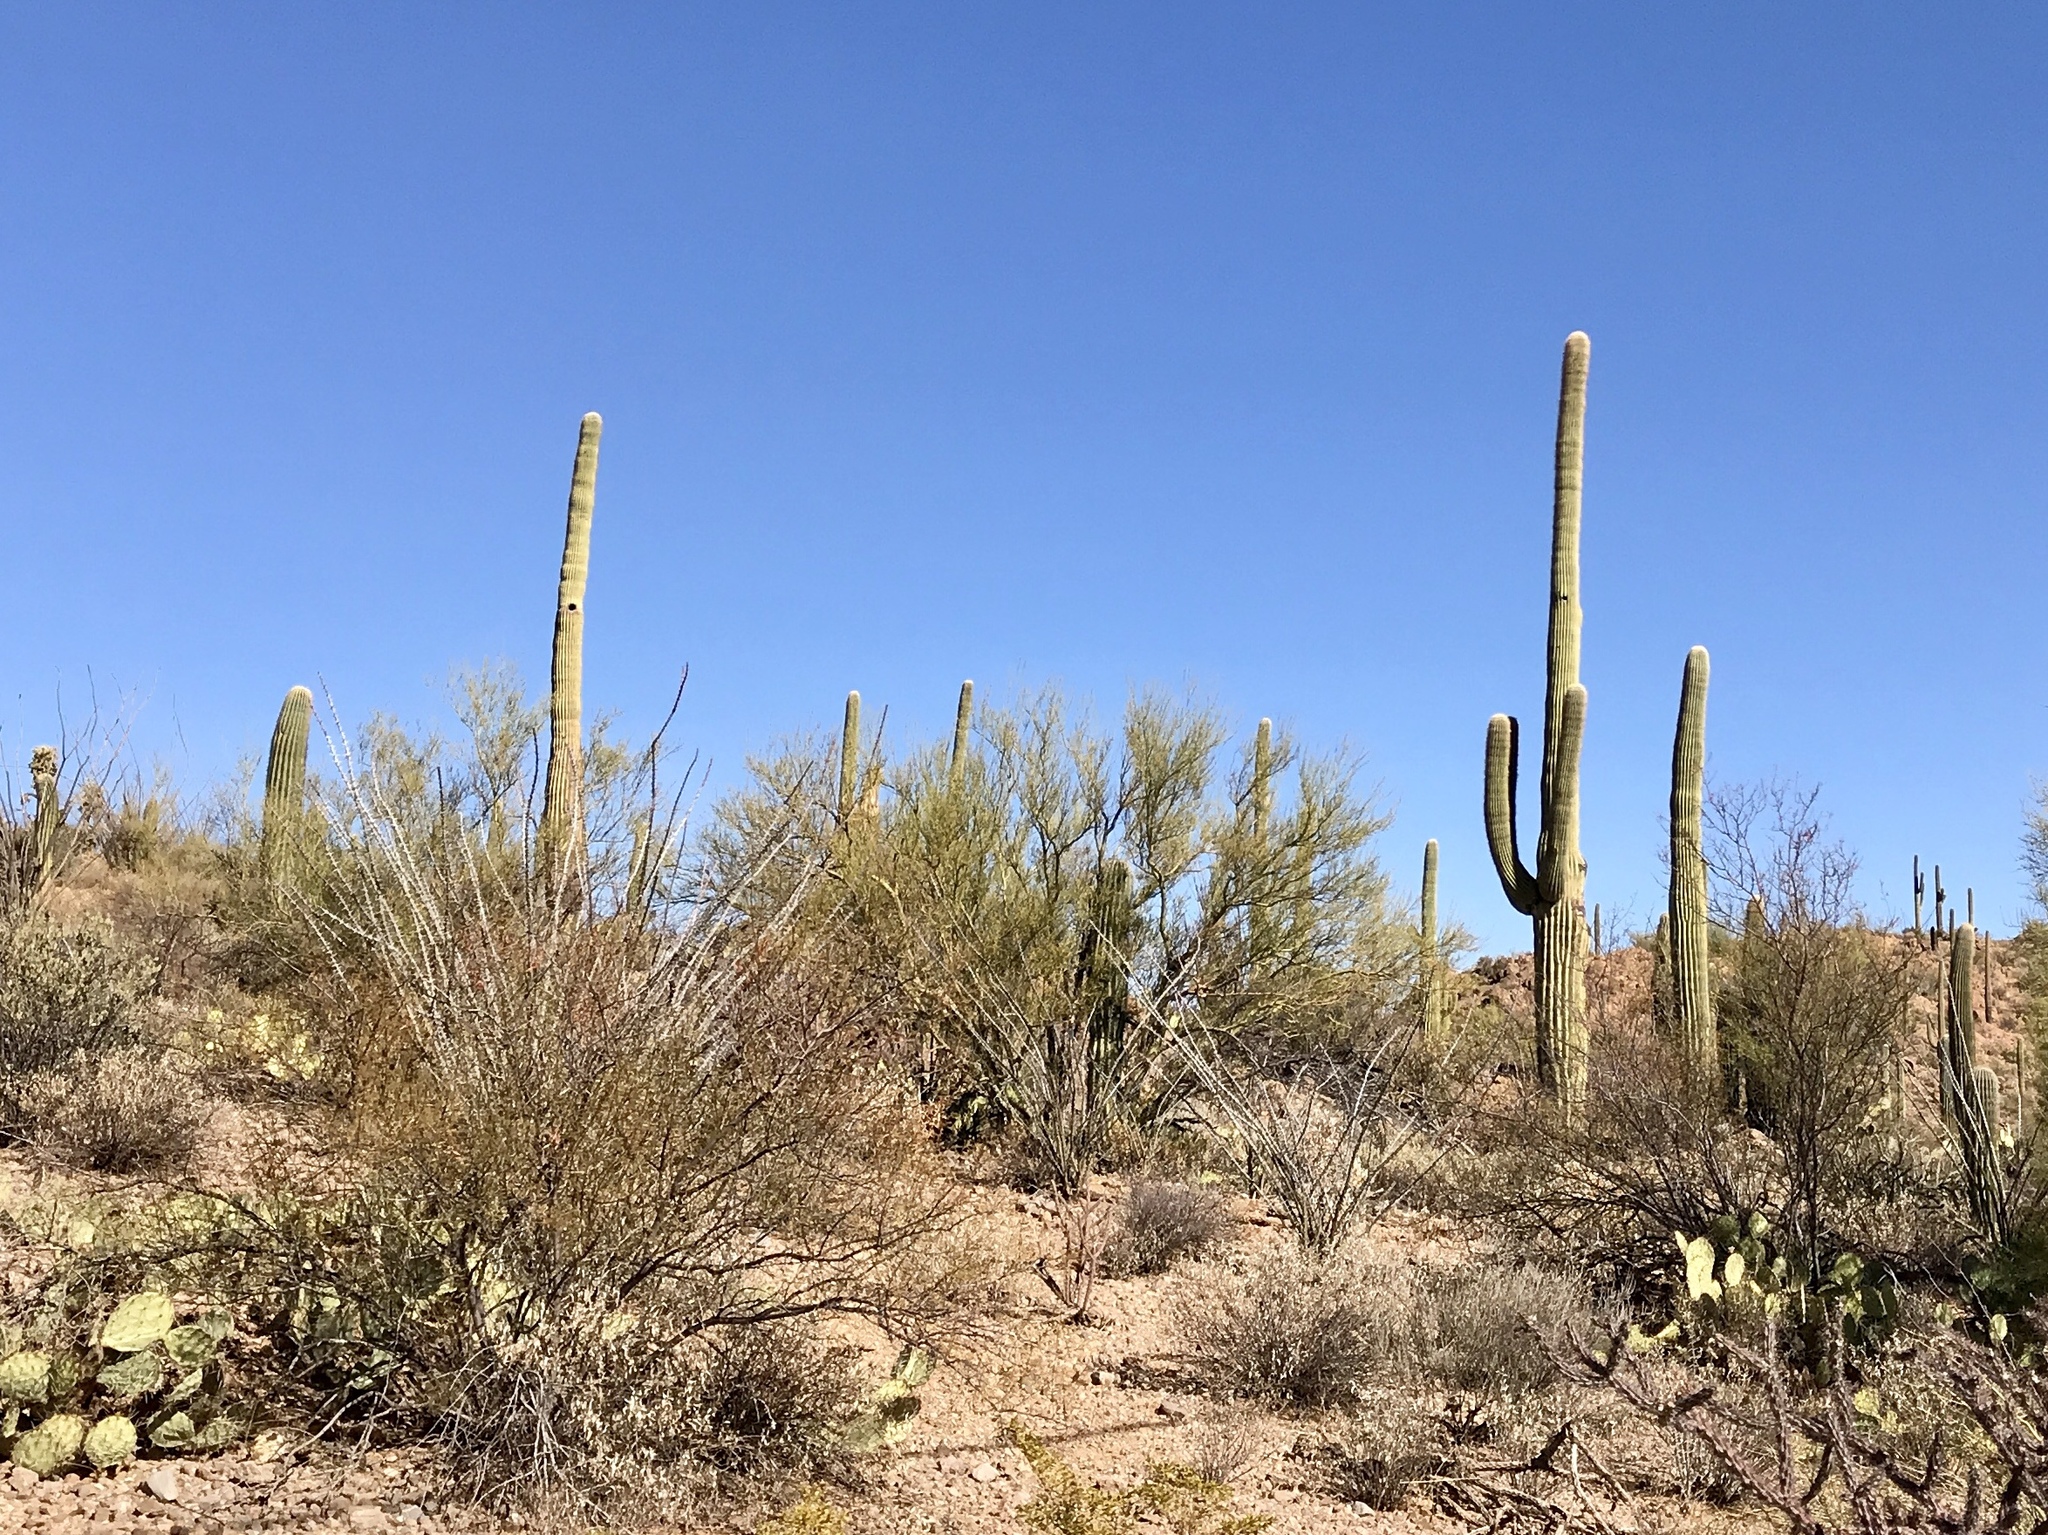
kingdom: Plantae
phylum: Tracheophyta
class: Magnoliopsida
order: Caryophyllales
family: Cactaceae
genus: Carnegiea
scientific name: Carnegiea gigantea
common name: Saguaro
